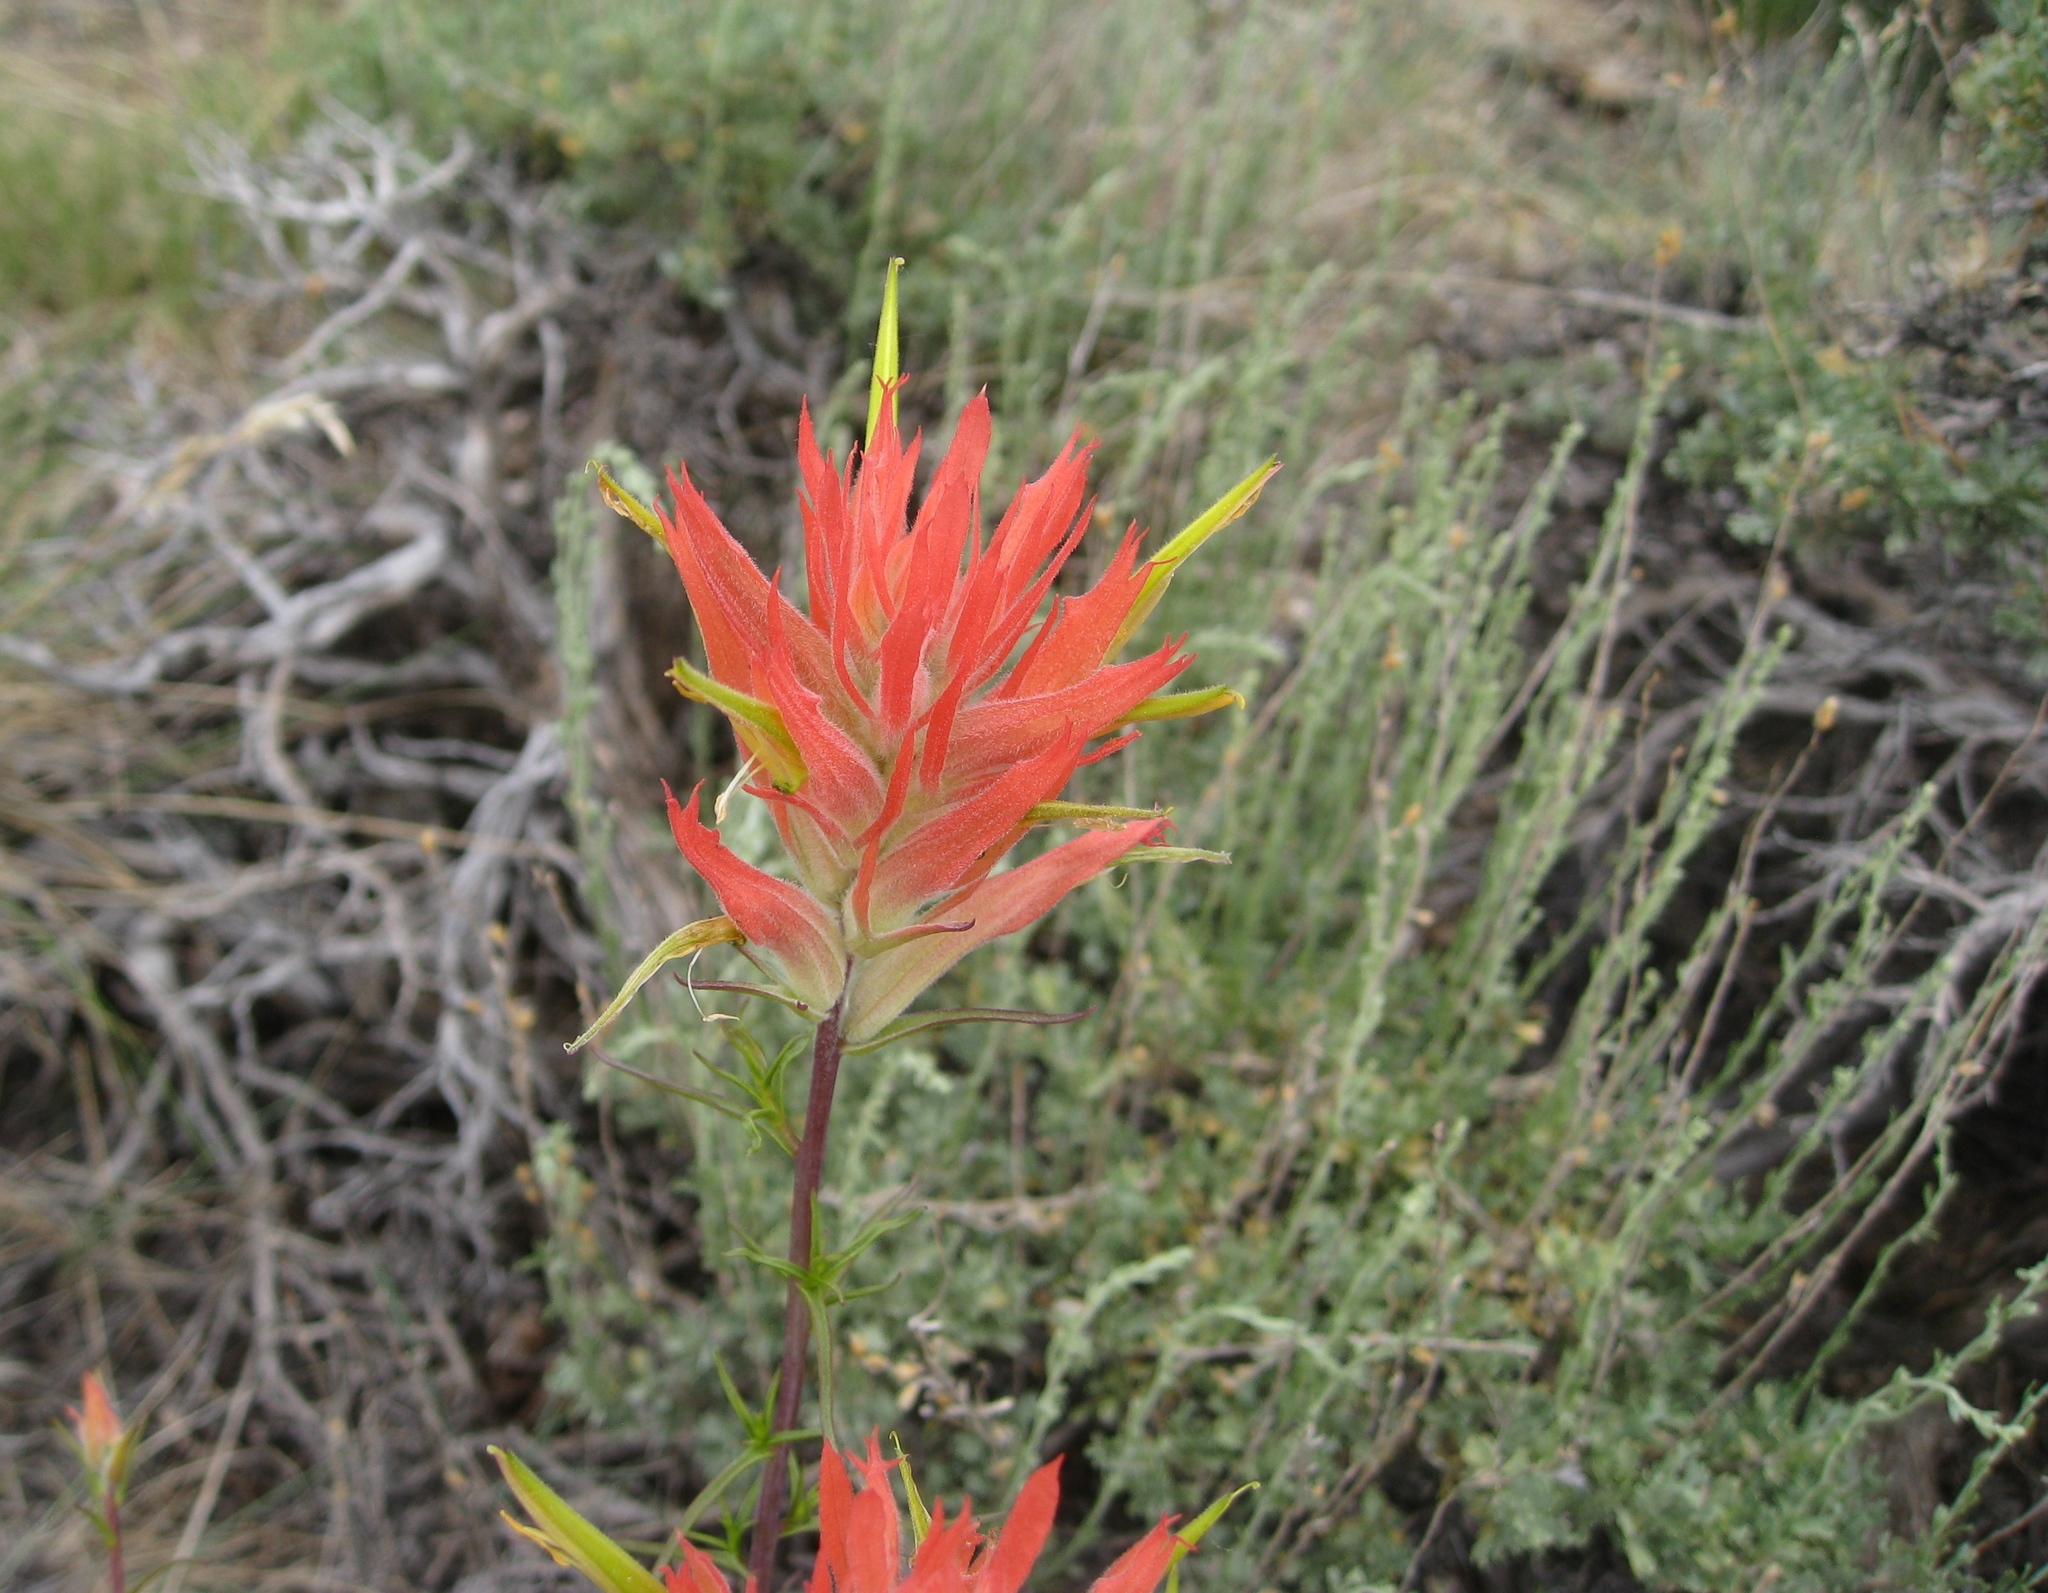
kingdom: Plantae
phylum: Tracheophyta
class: Magnoliopsida
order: Lamiales
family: Orobanchaceae
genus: Castilleja
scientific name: Castilleja linariifolia
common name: Wyoming paintbrush
